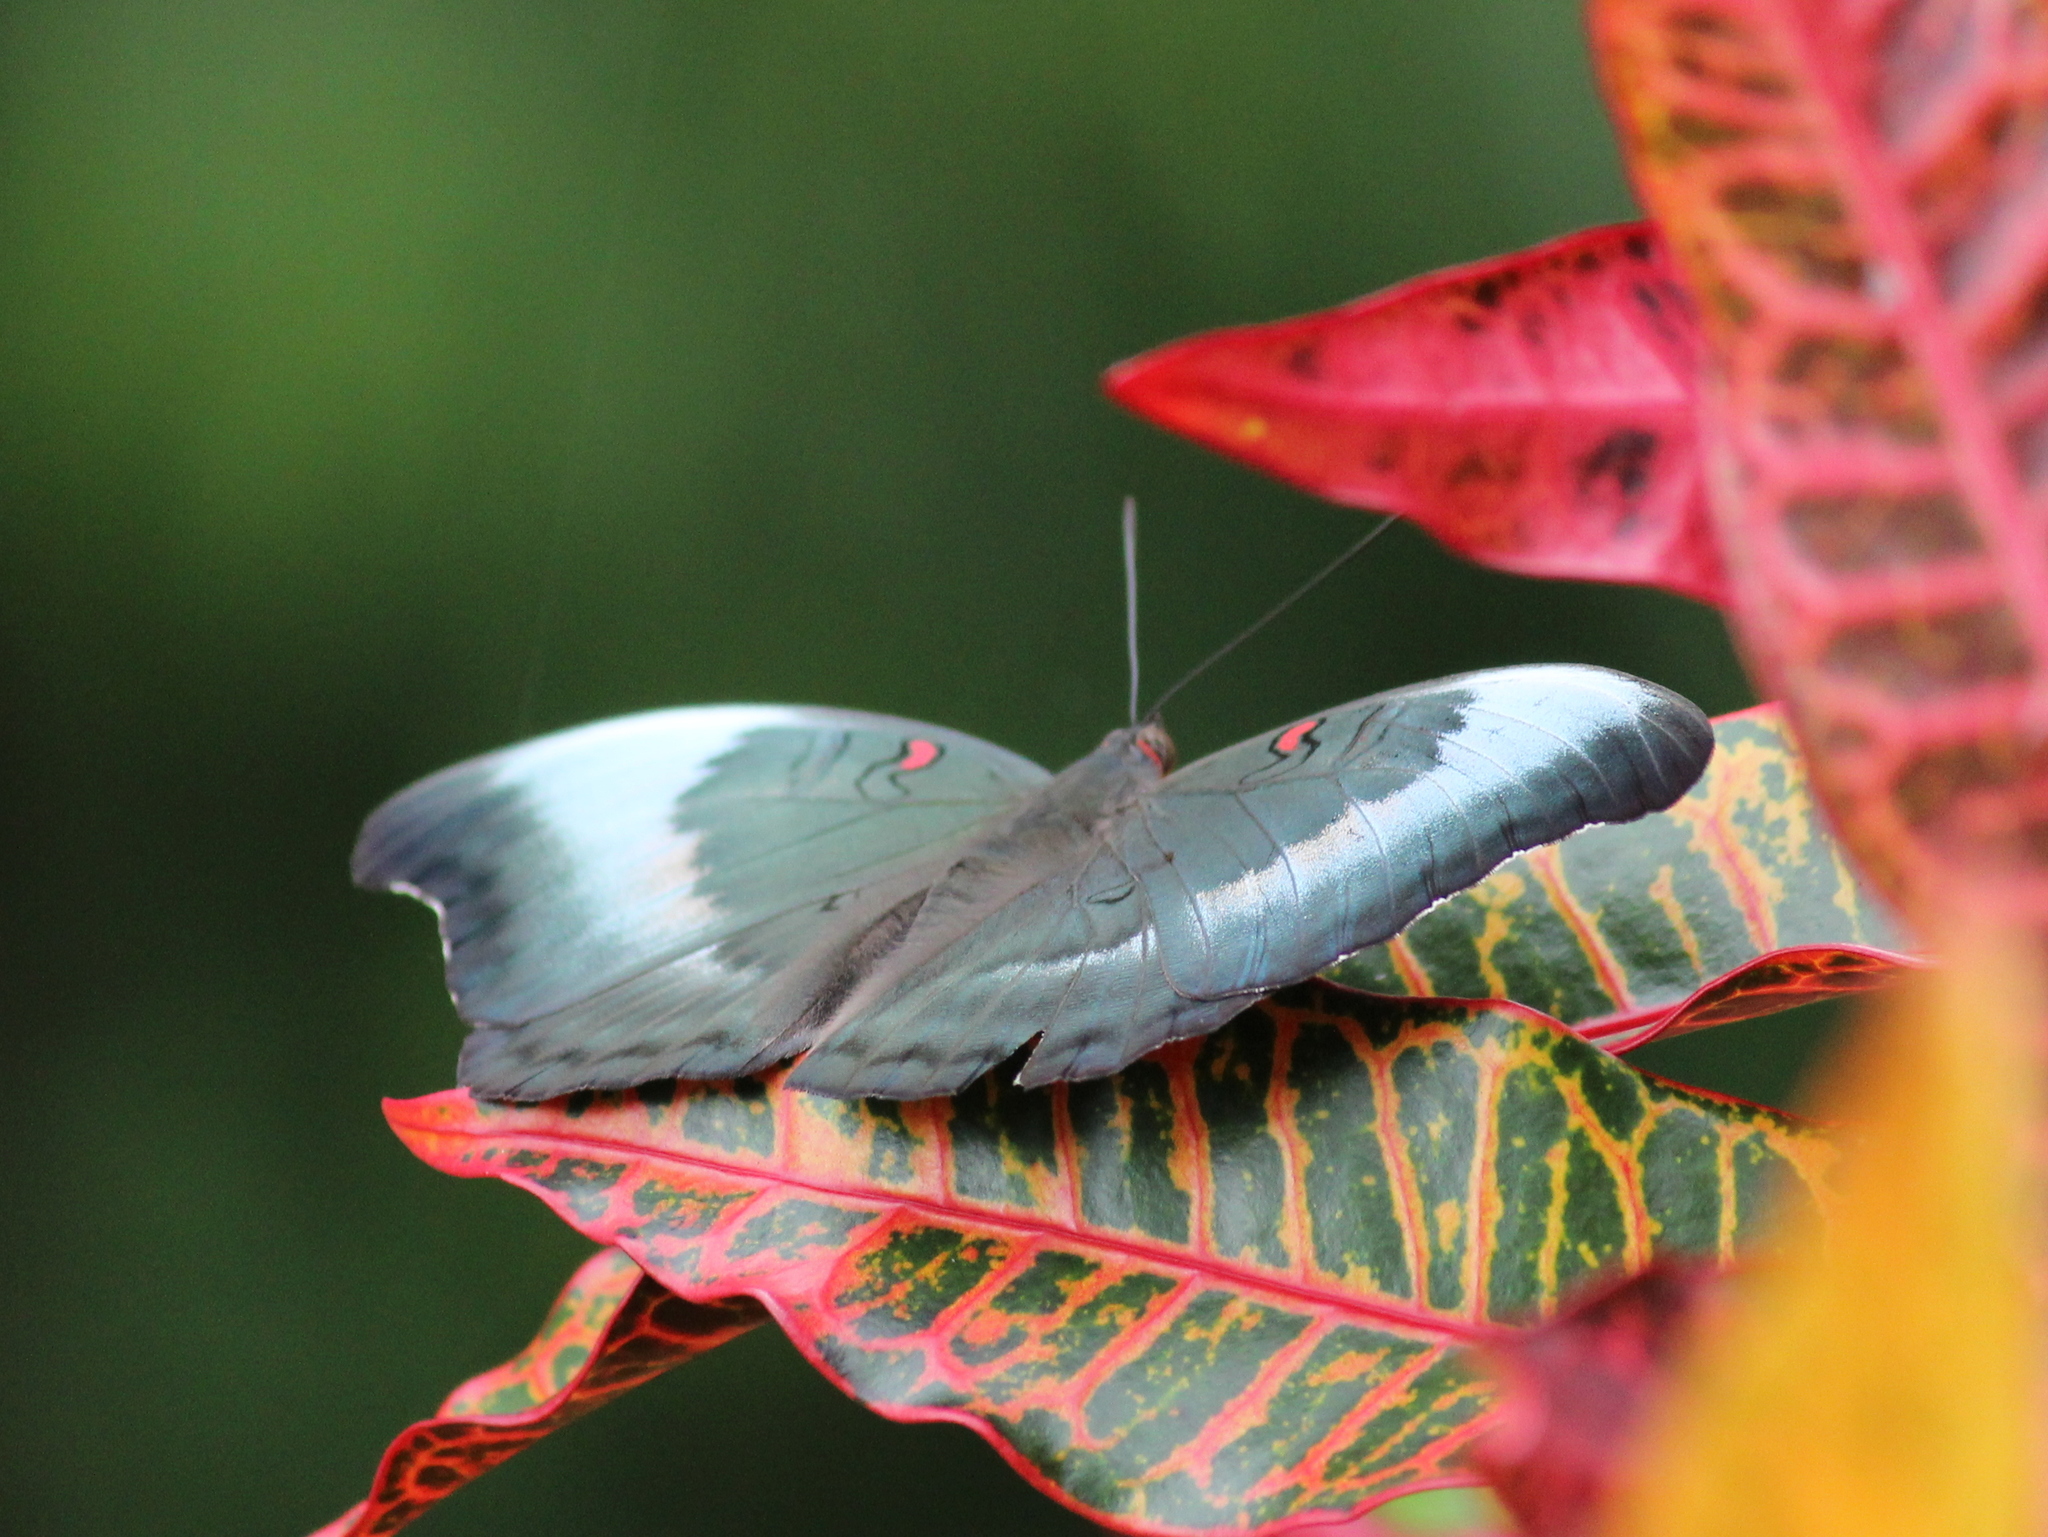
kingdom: Animalia
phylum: Arthropoda
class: Insecta
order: Lepidoptera
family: Nymphalidae
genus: Euthalia
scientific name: Euthalia Dophla evelina
